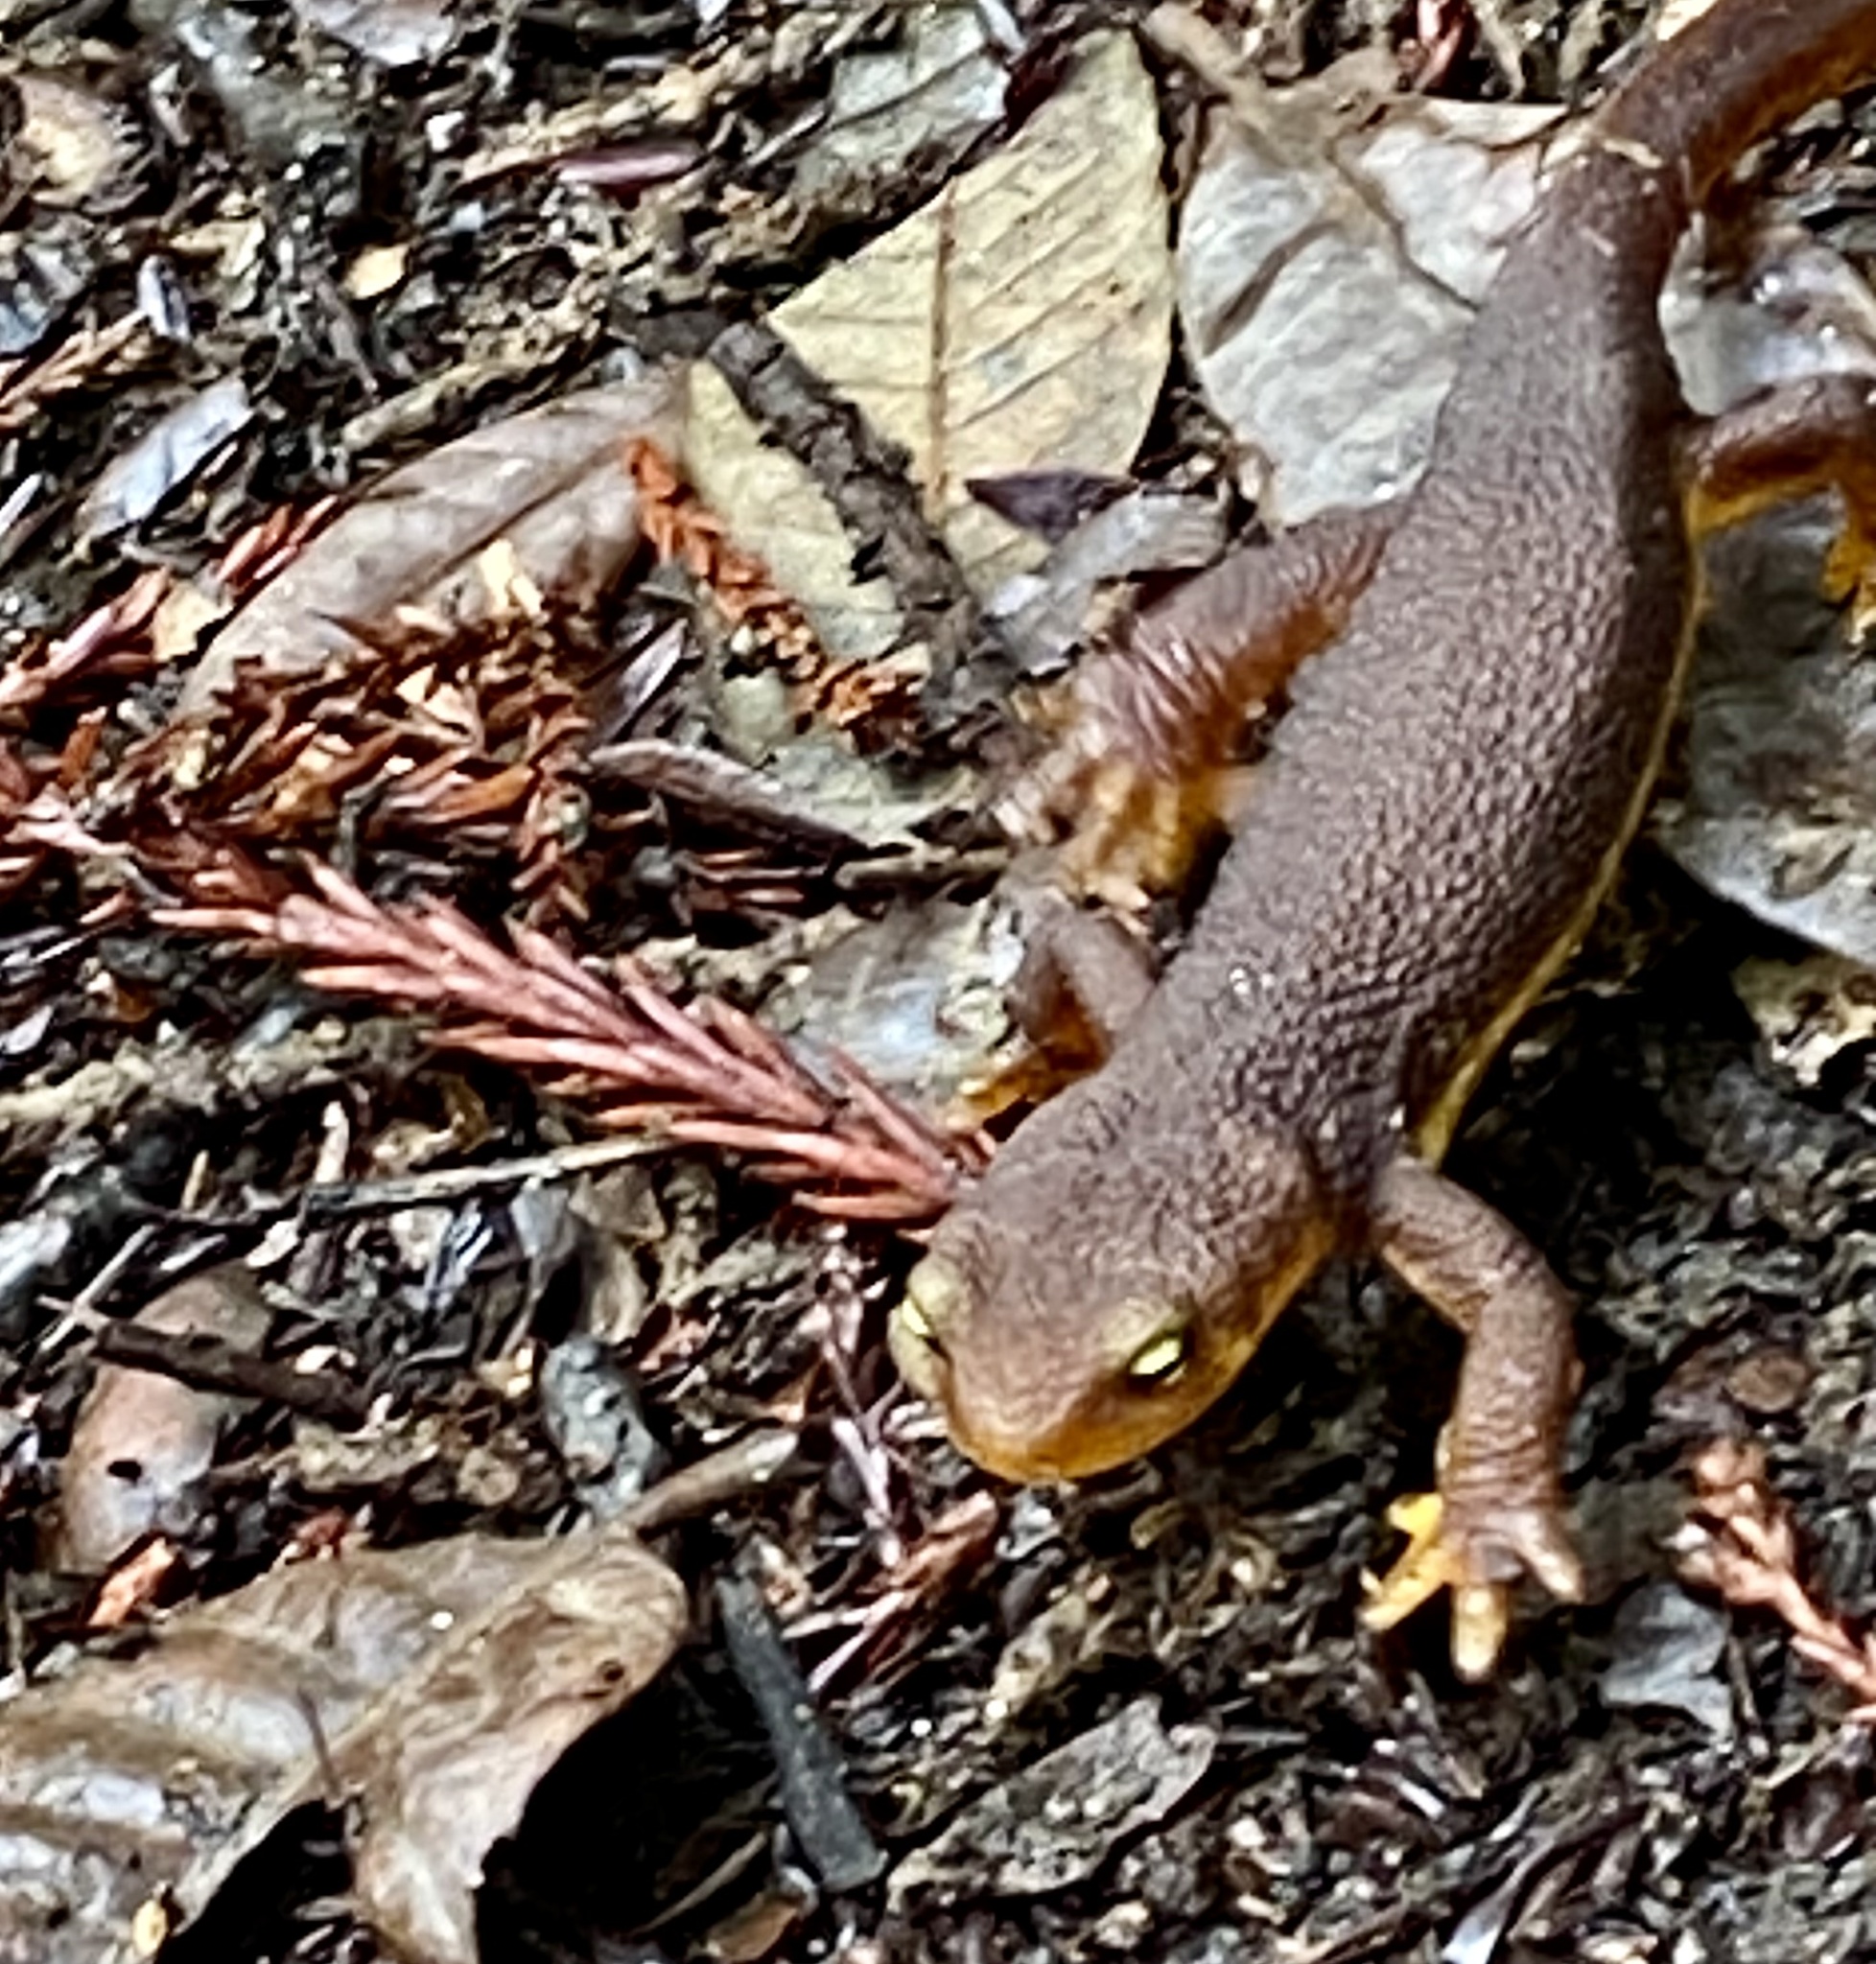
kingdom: Animalia
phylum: Chordata
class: Amphibia
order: Caudata
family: Salamandridae
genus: Taricha
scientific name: Taricha torosa
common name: California newt
